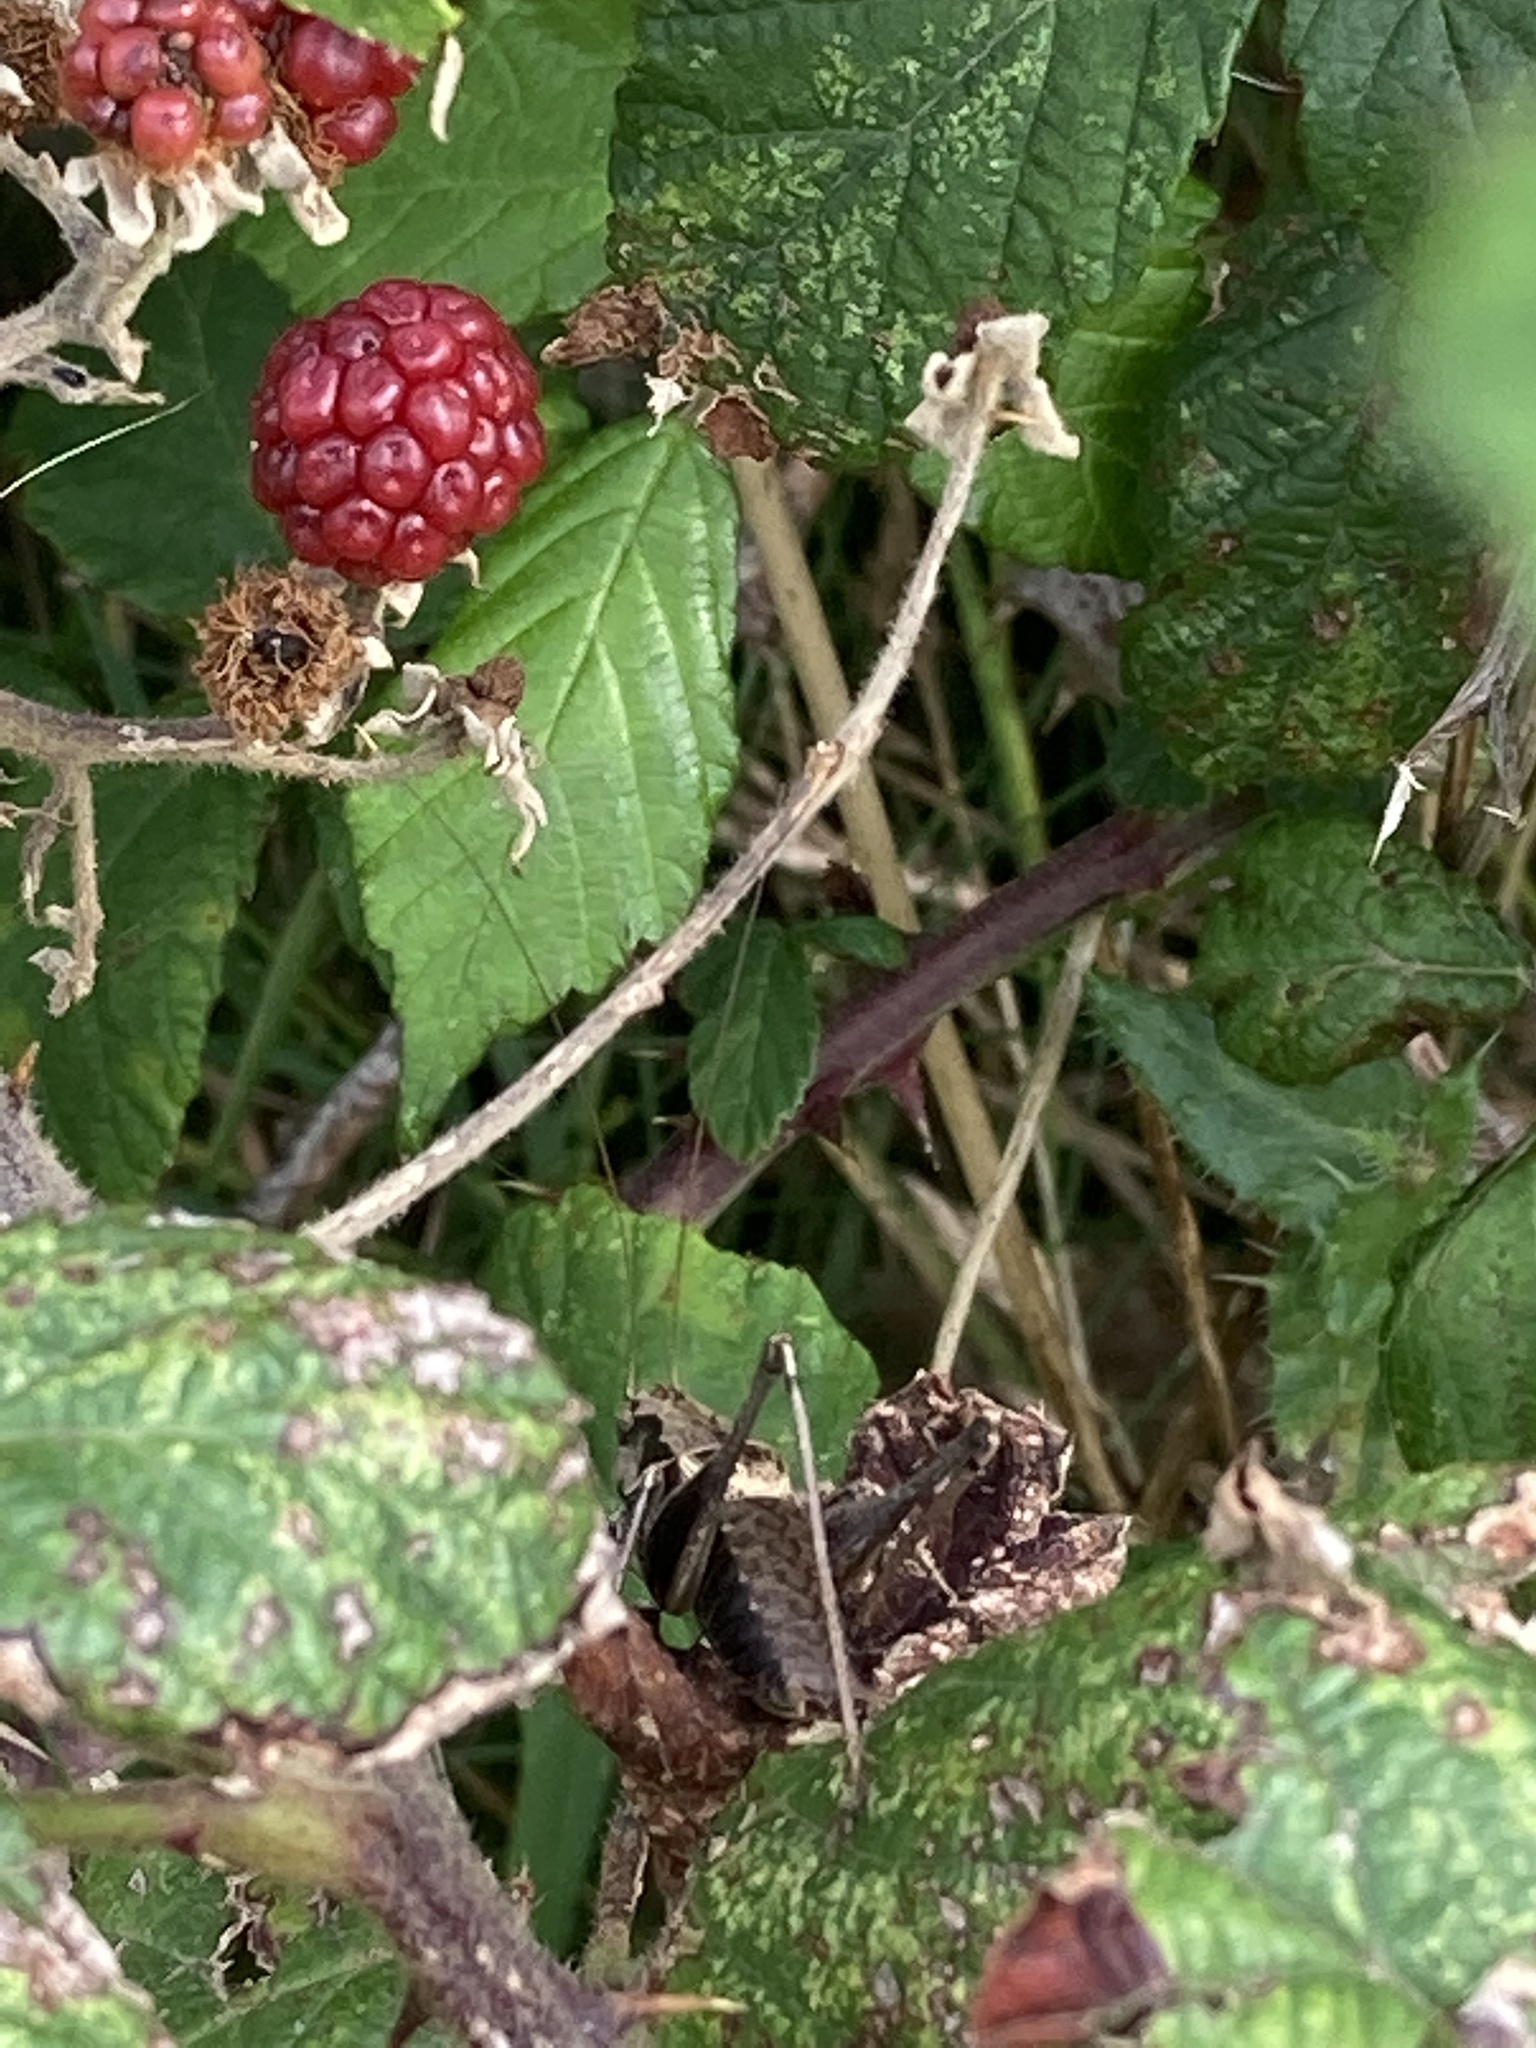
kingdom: Animalia
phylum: Arthropoda
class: Insecta
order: Orthoptera
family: Tettigoniidae
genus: Pholidoptera
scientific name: Pholidoptera griseoaptera
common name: Dark bush-cricket
